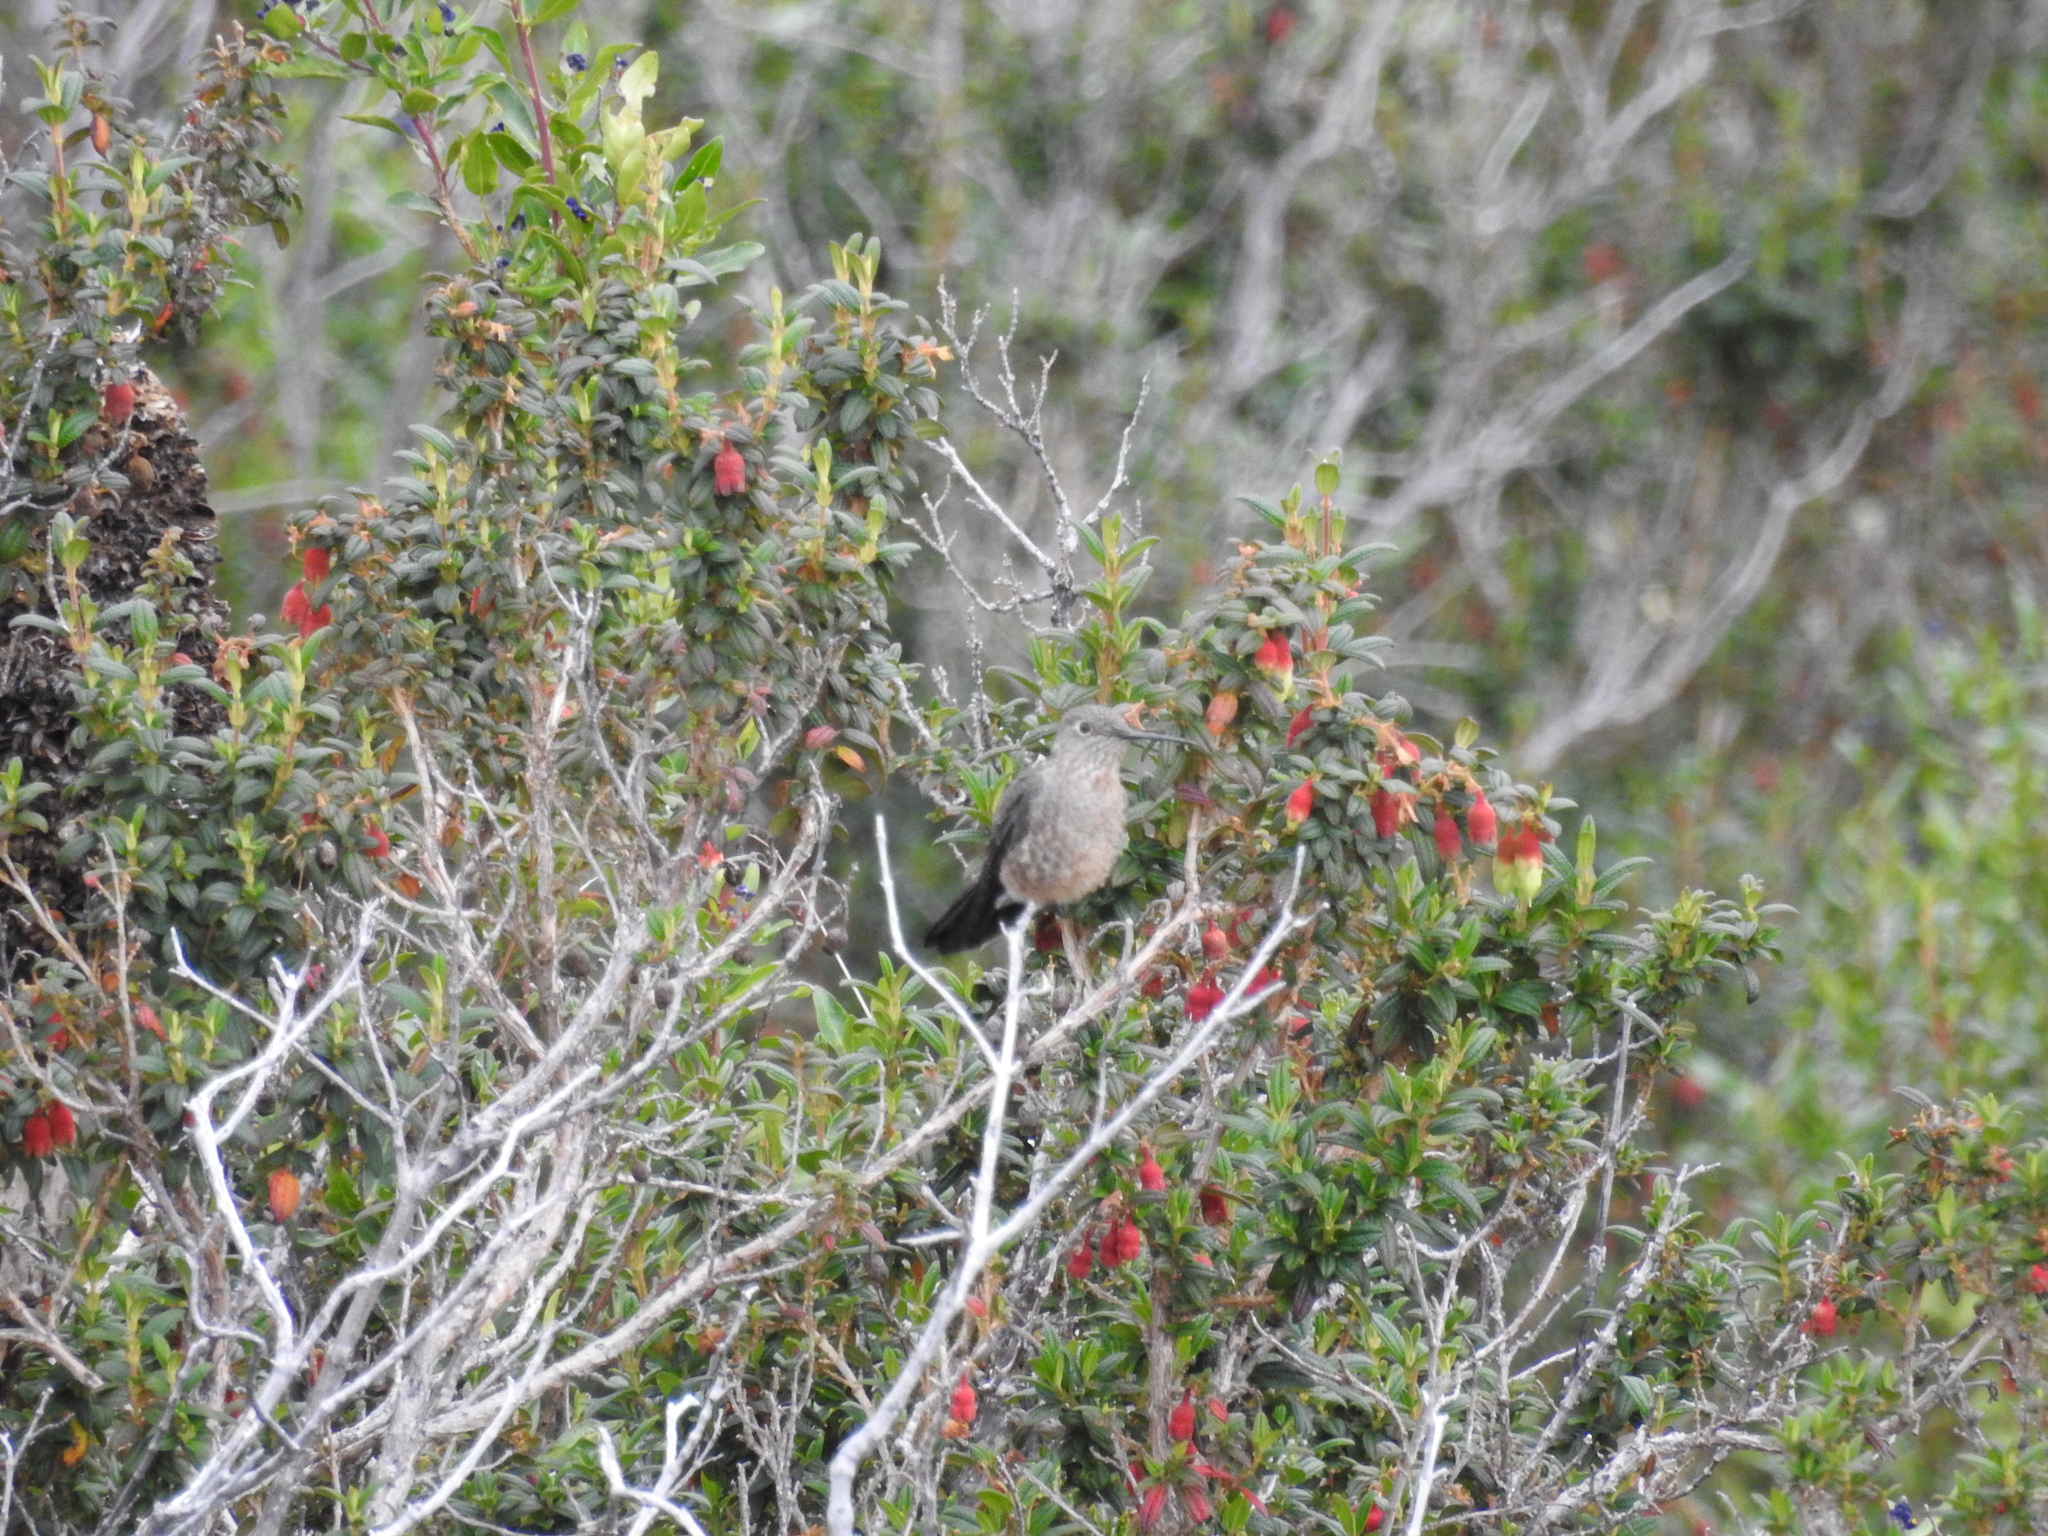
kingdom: Animalia
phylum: Chordata
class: Aves
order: Apodiformes
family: Trochilidae
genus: Patagona
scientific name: Patagona gigas
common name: Giant hummingbird
